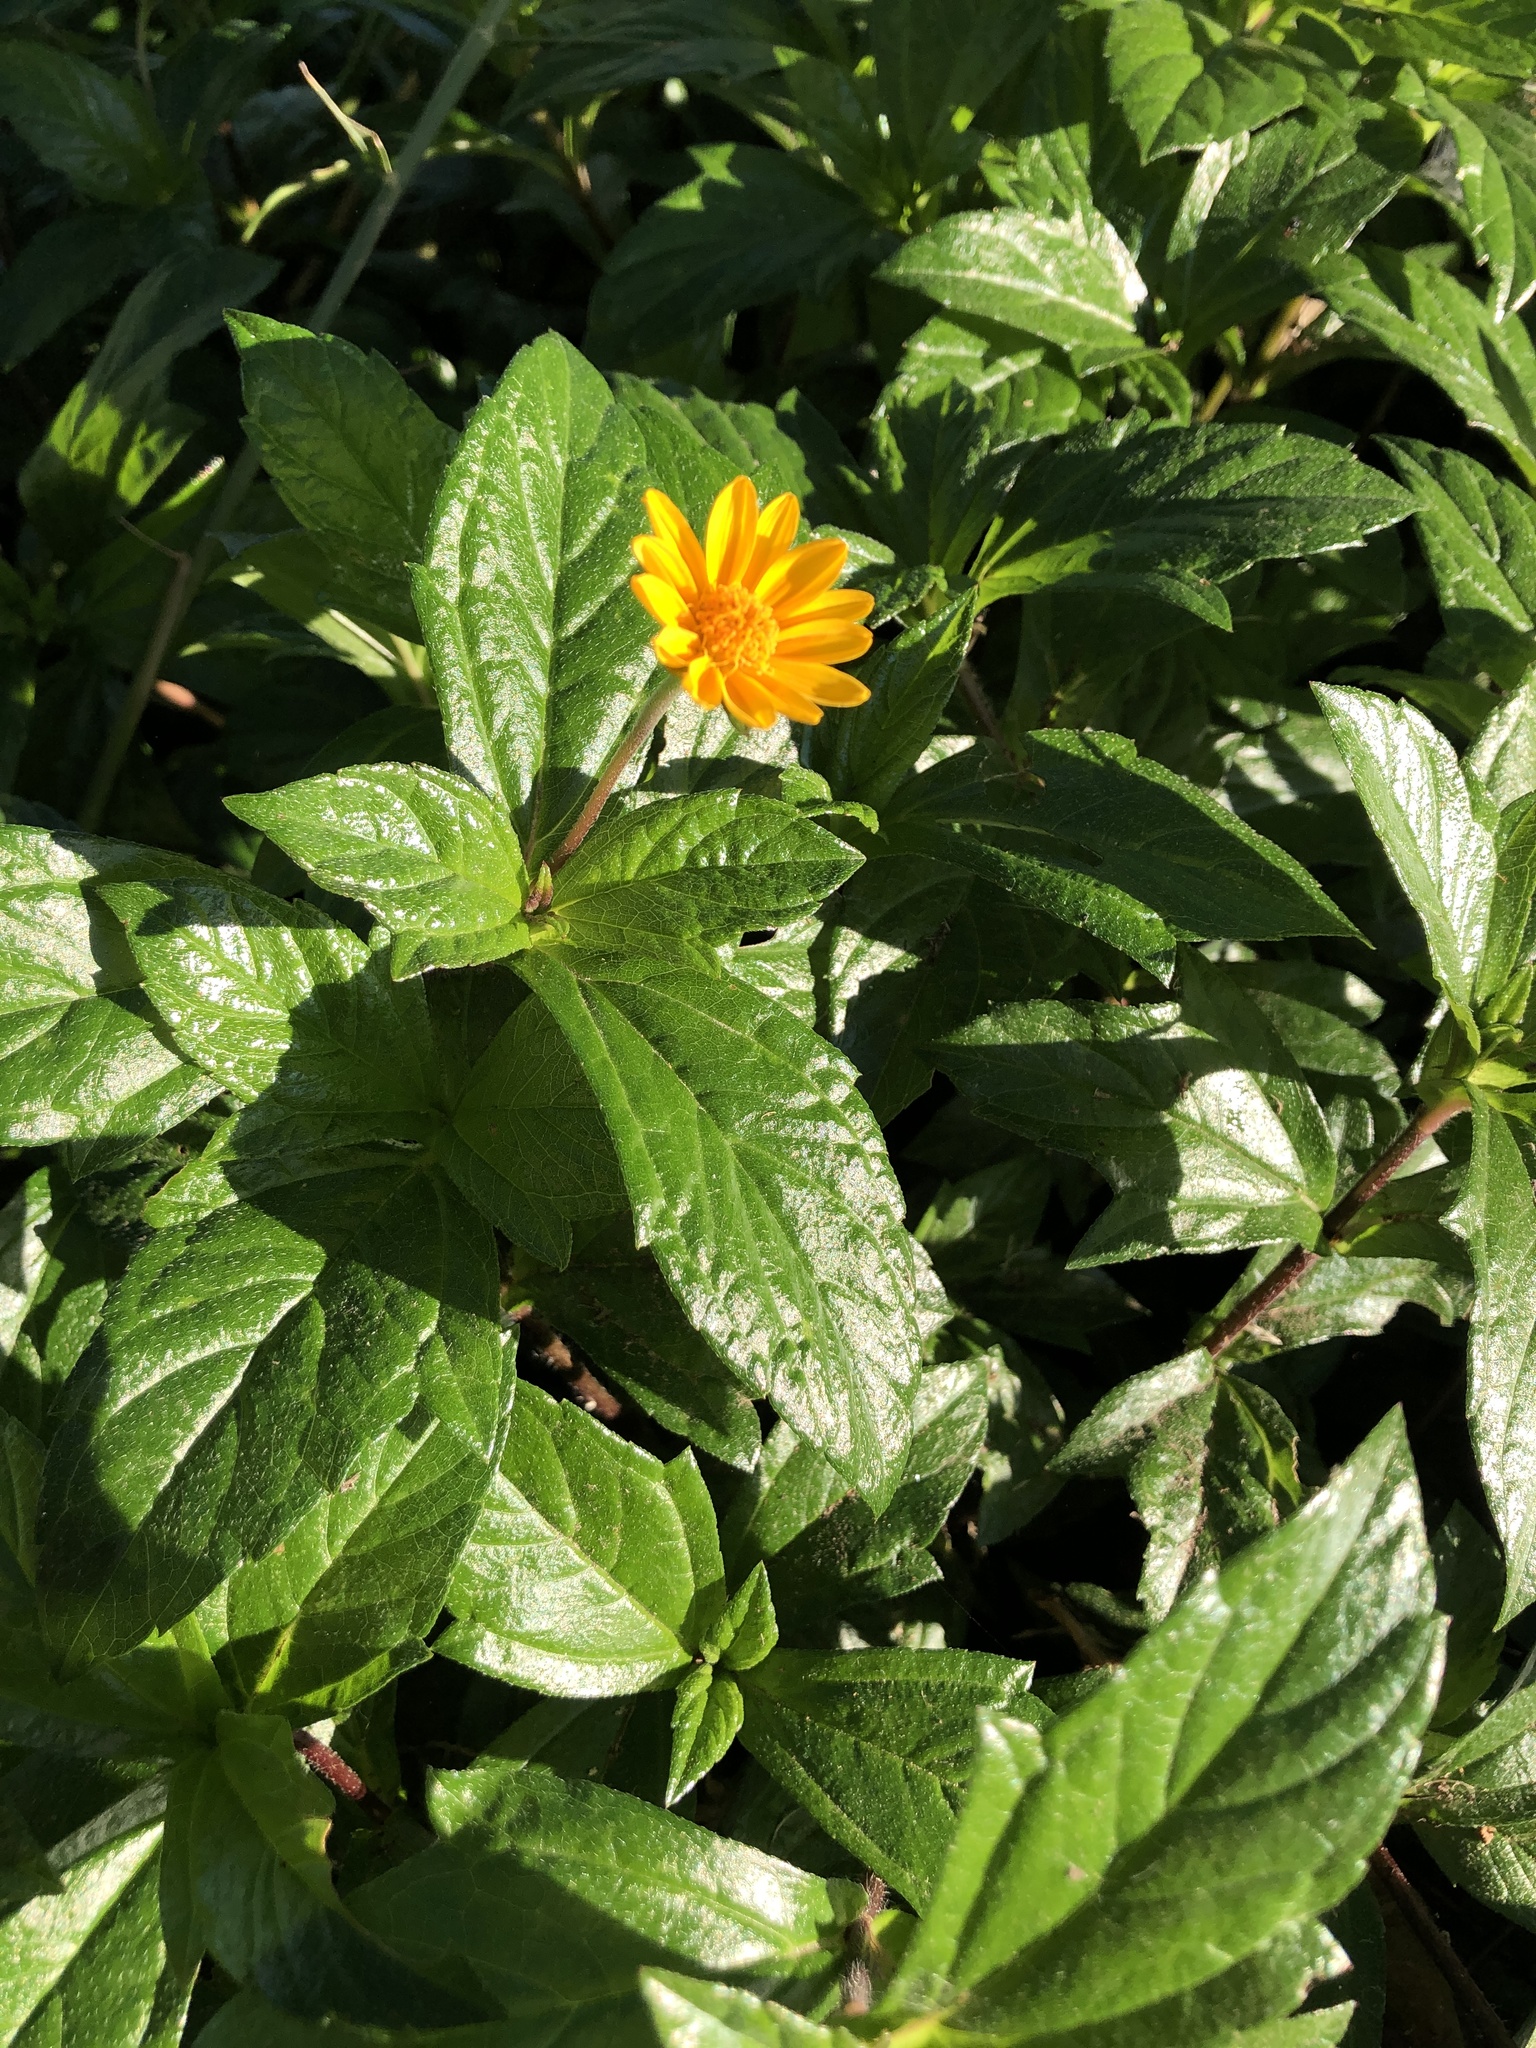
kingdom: Plantae
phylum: Tracheophyta
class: Magnoliopsida
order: Asterales
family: Asteraceae
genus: Sphagneticola
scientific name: Sphagneticola trilobata
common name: Bay biscayne creeping-oxeye
